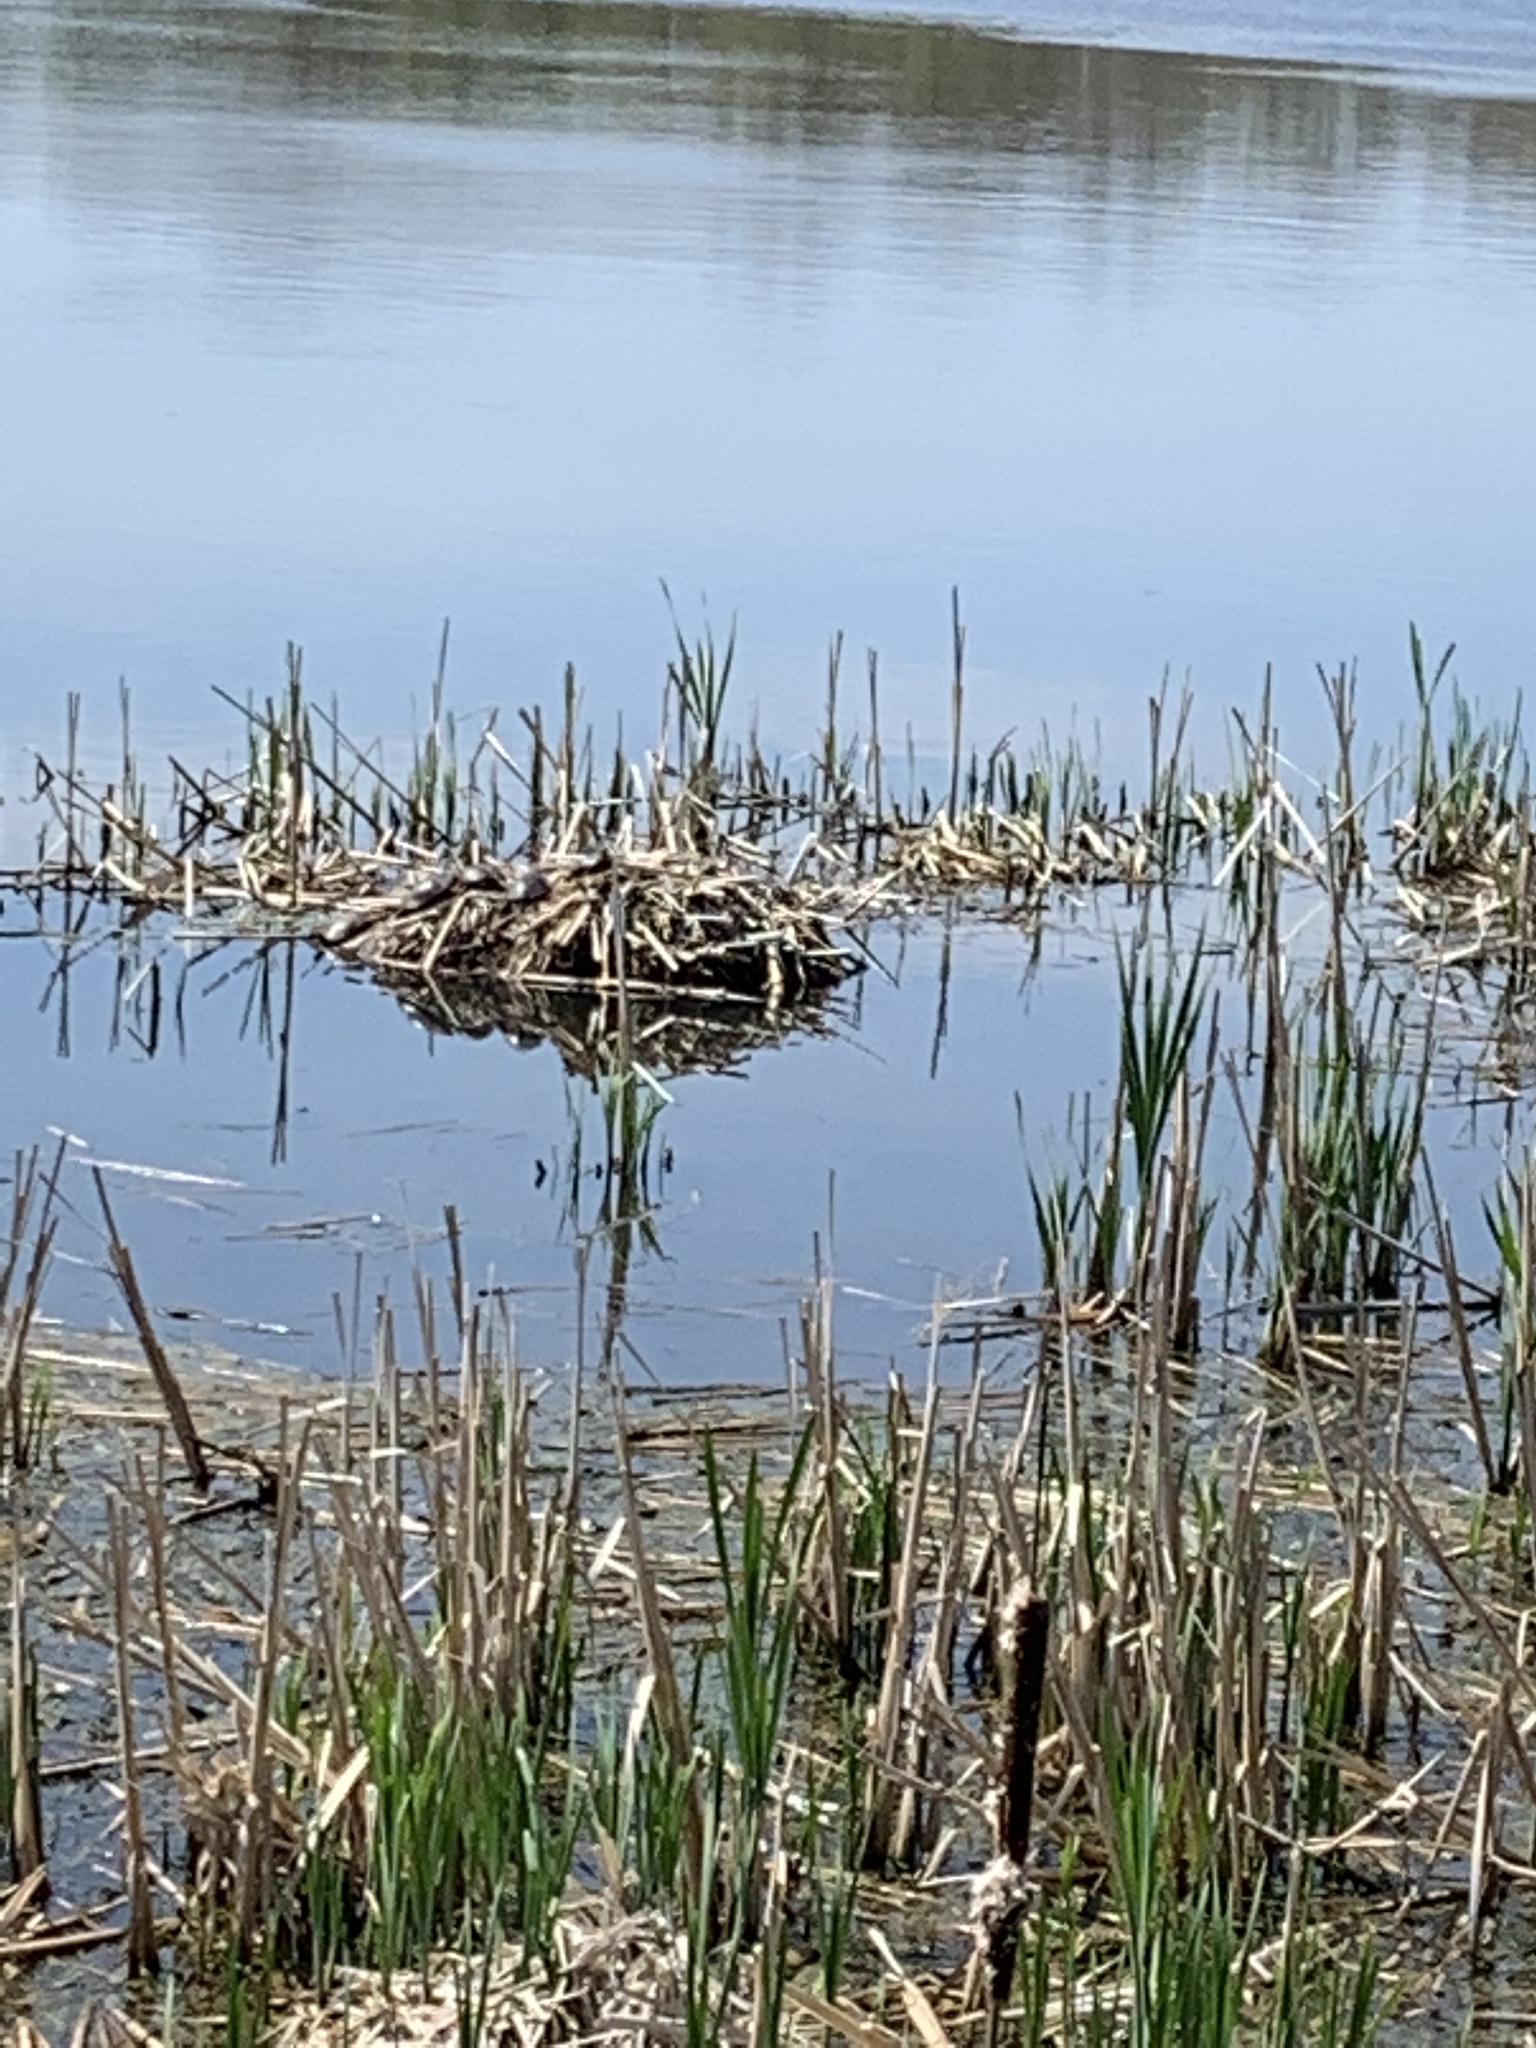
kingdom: Animalia
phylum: Chordata
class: Testudines
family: Emydidae
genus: Chrysemys
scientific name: Chrysemys picta
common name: Painted turtle
